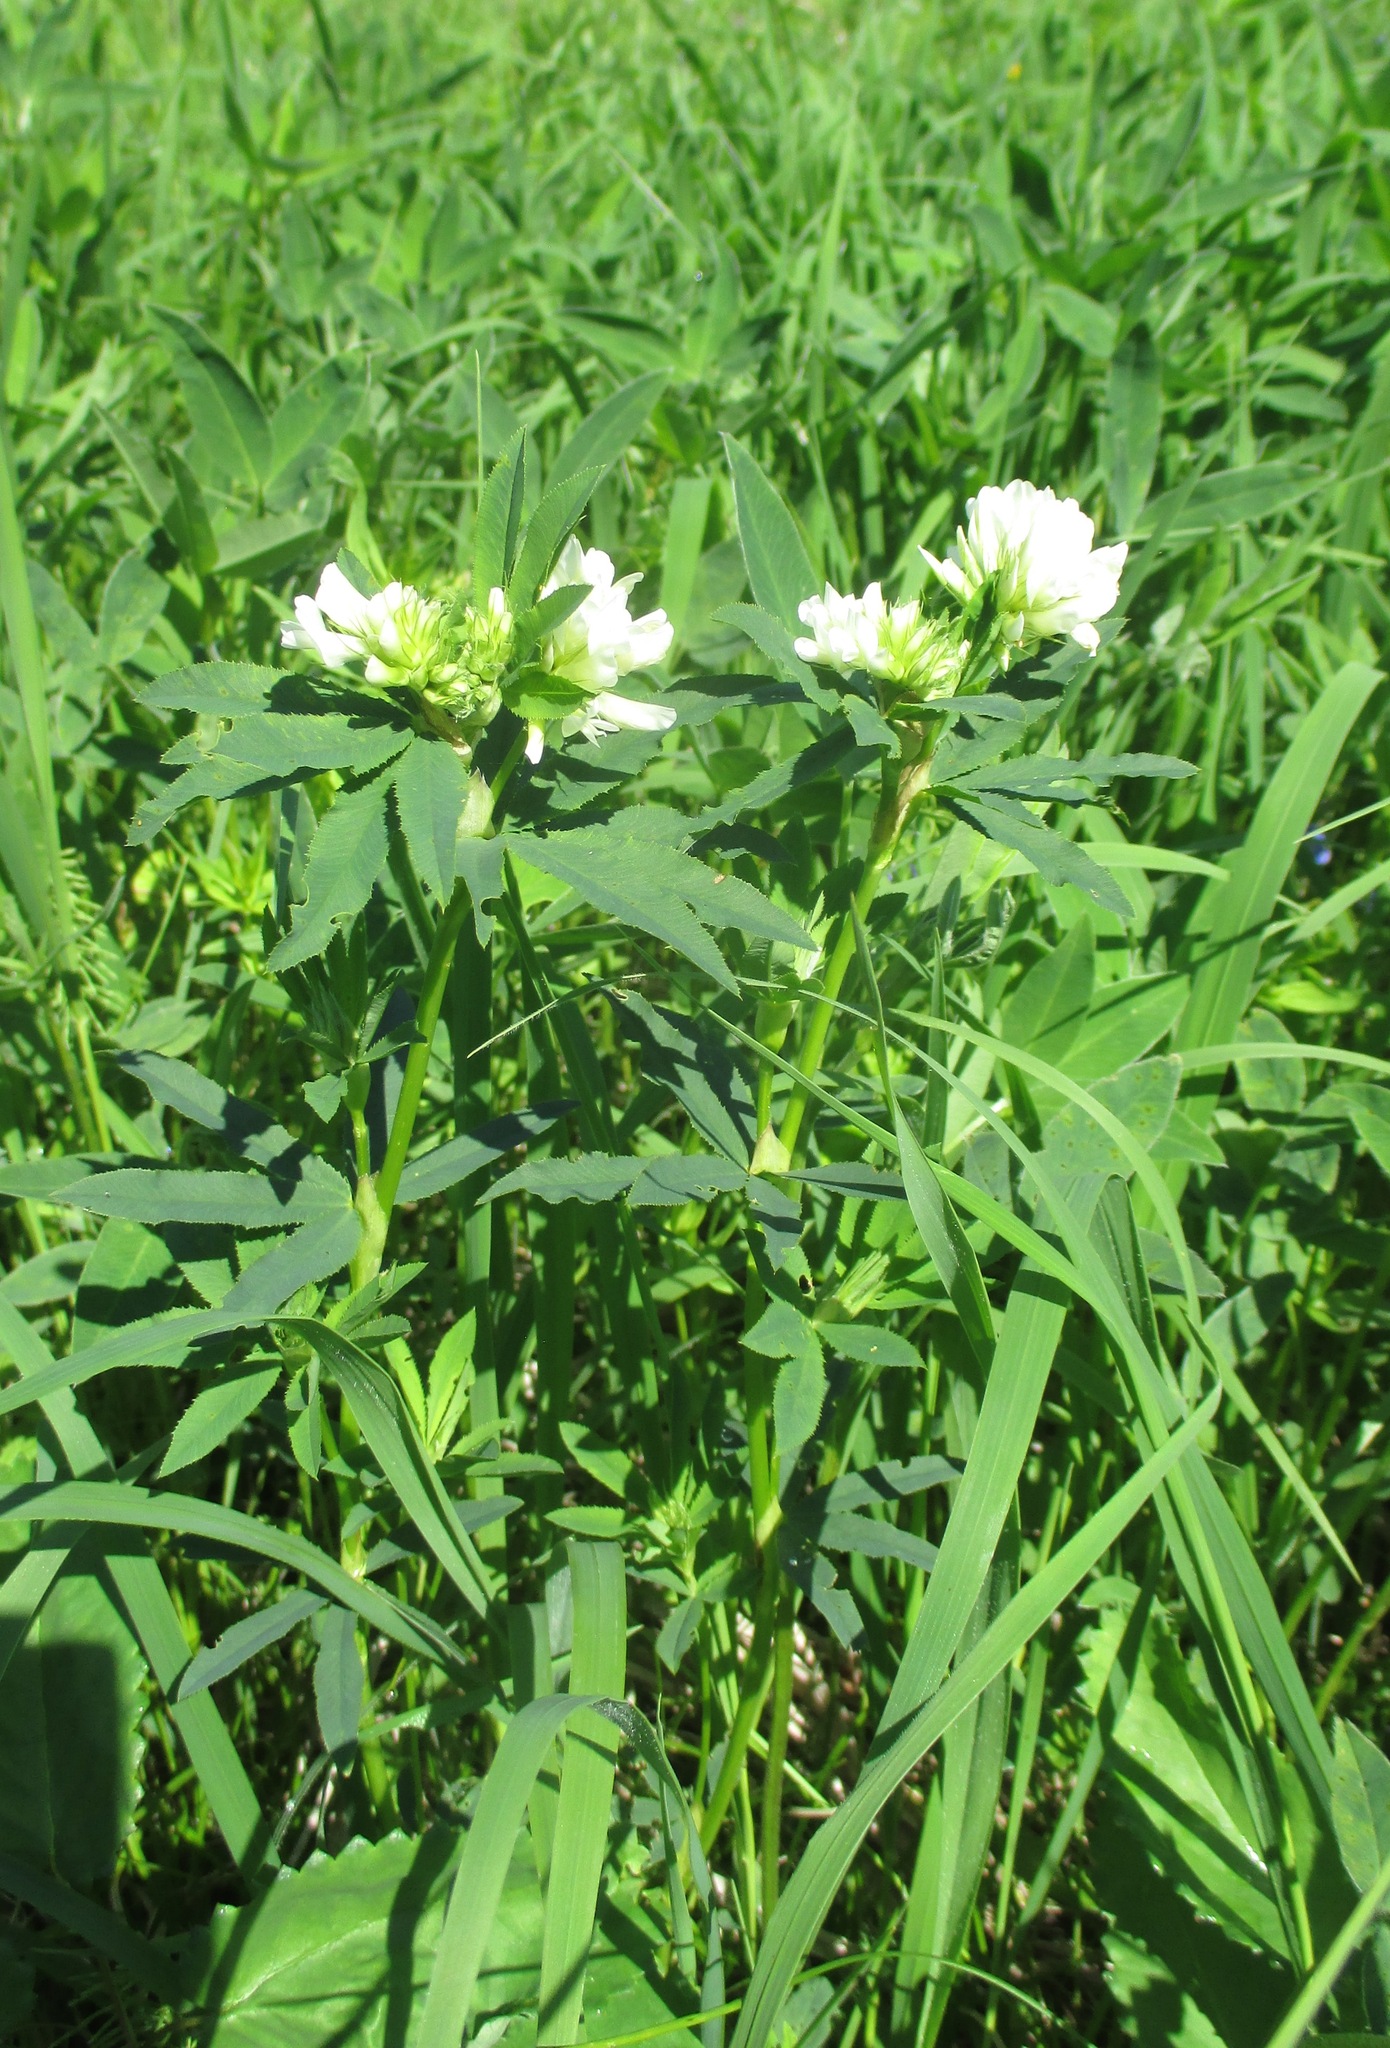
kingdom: Plantae
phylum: Tracheophyta
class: Magnoliopsida
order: Fabales
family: Fabaceae
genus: Trifolium
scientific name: Trifolium lupinaster
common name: Lupine clover
